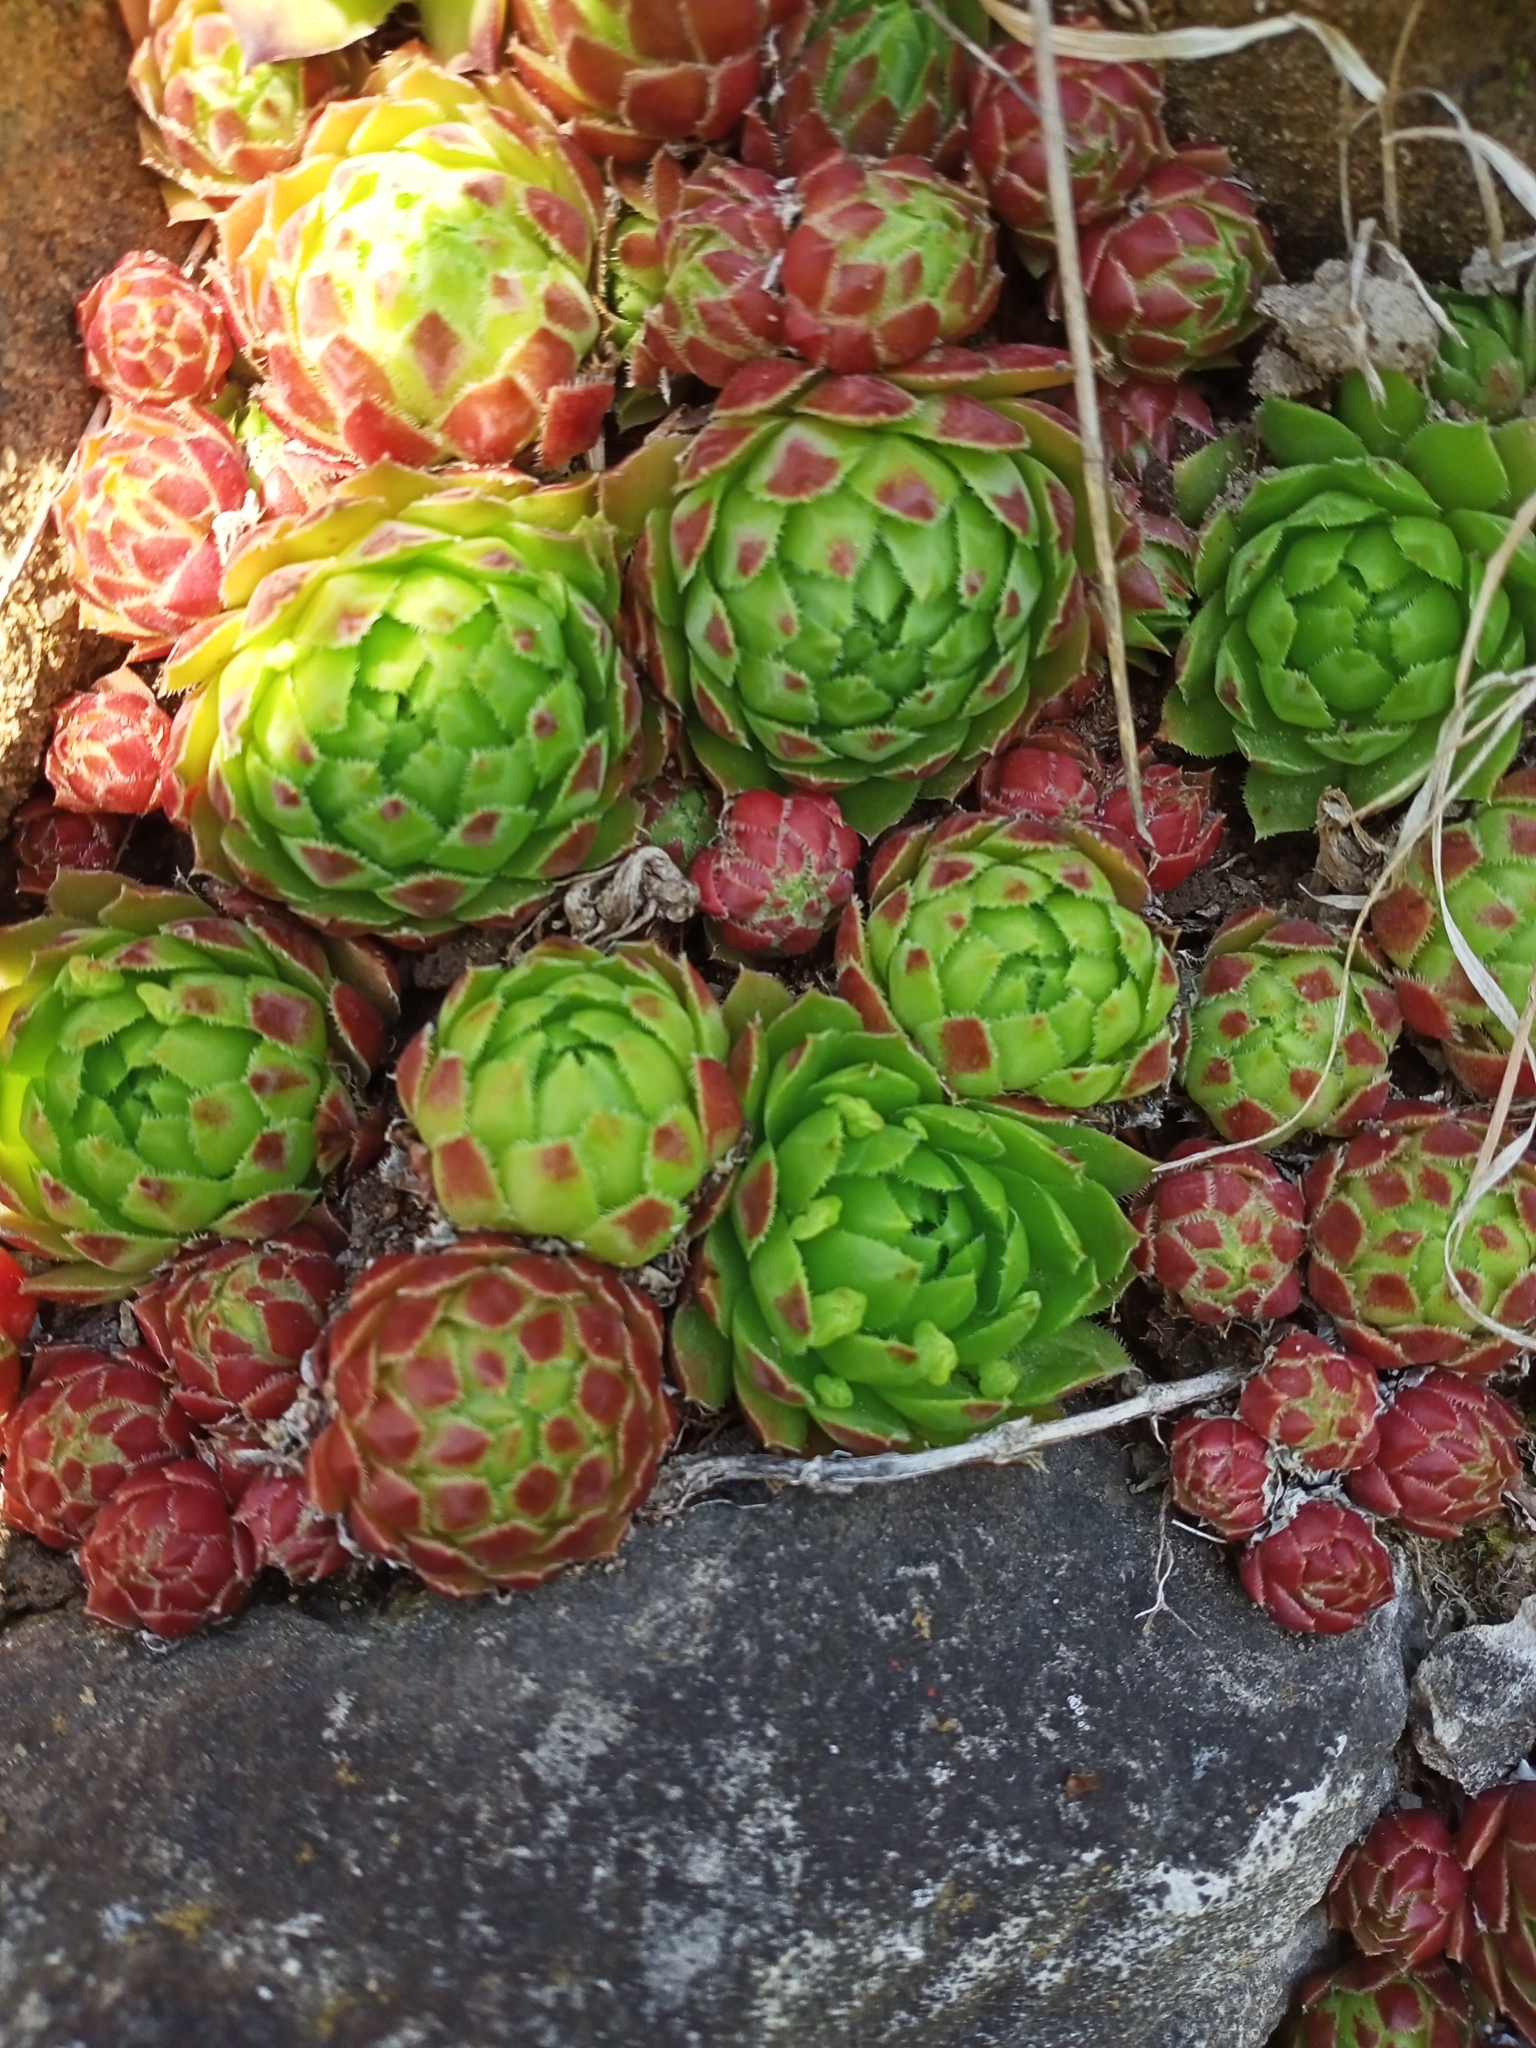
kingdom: Plantae
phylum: Tracheophyta
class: Magnoliopsida
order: Saxifragales
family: Crassulaceae
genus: Sempervivum
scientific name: Sempervivum globiferum
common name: Rolling hen-and-chicks
